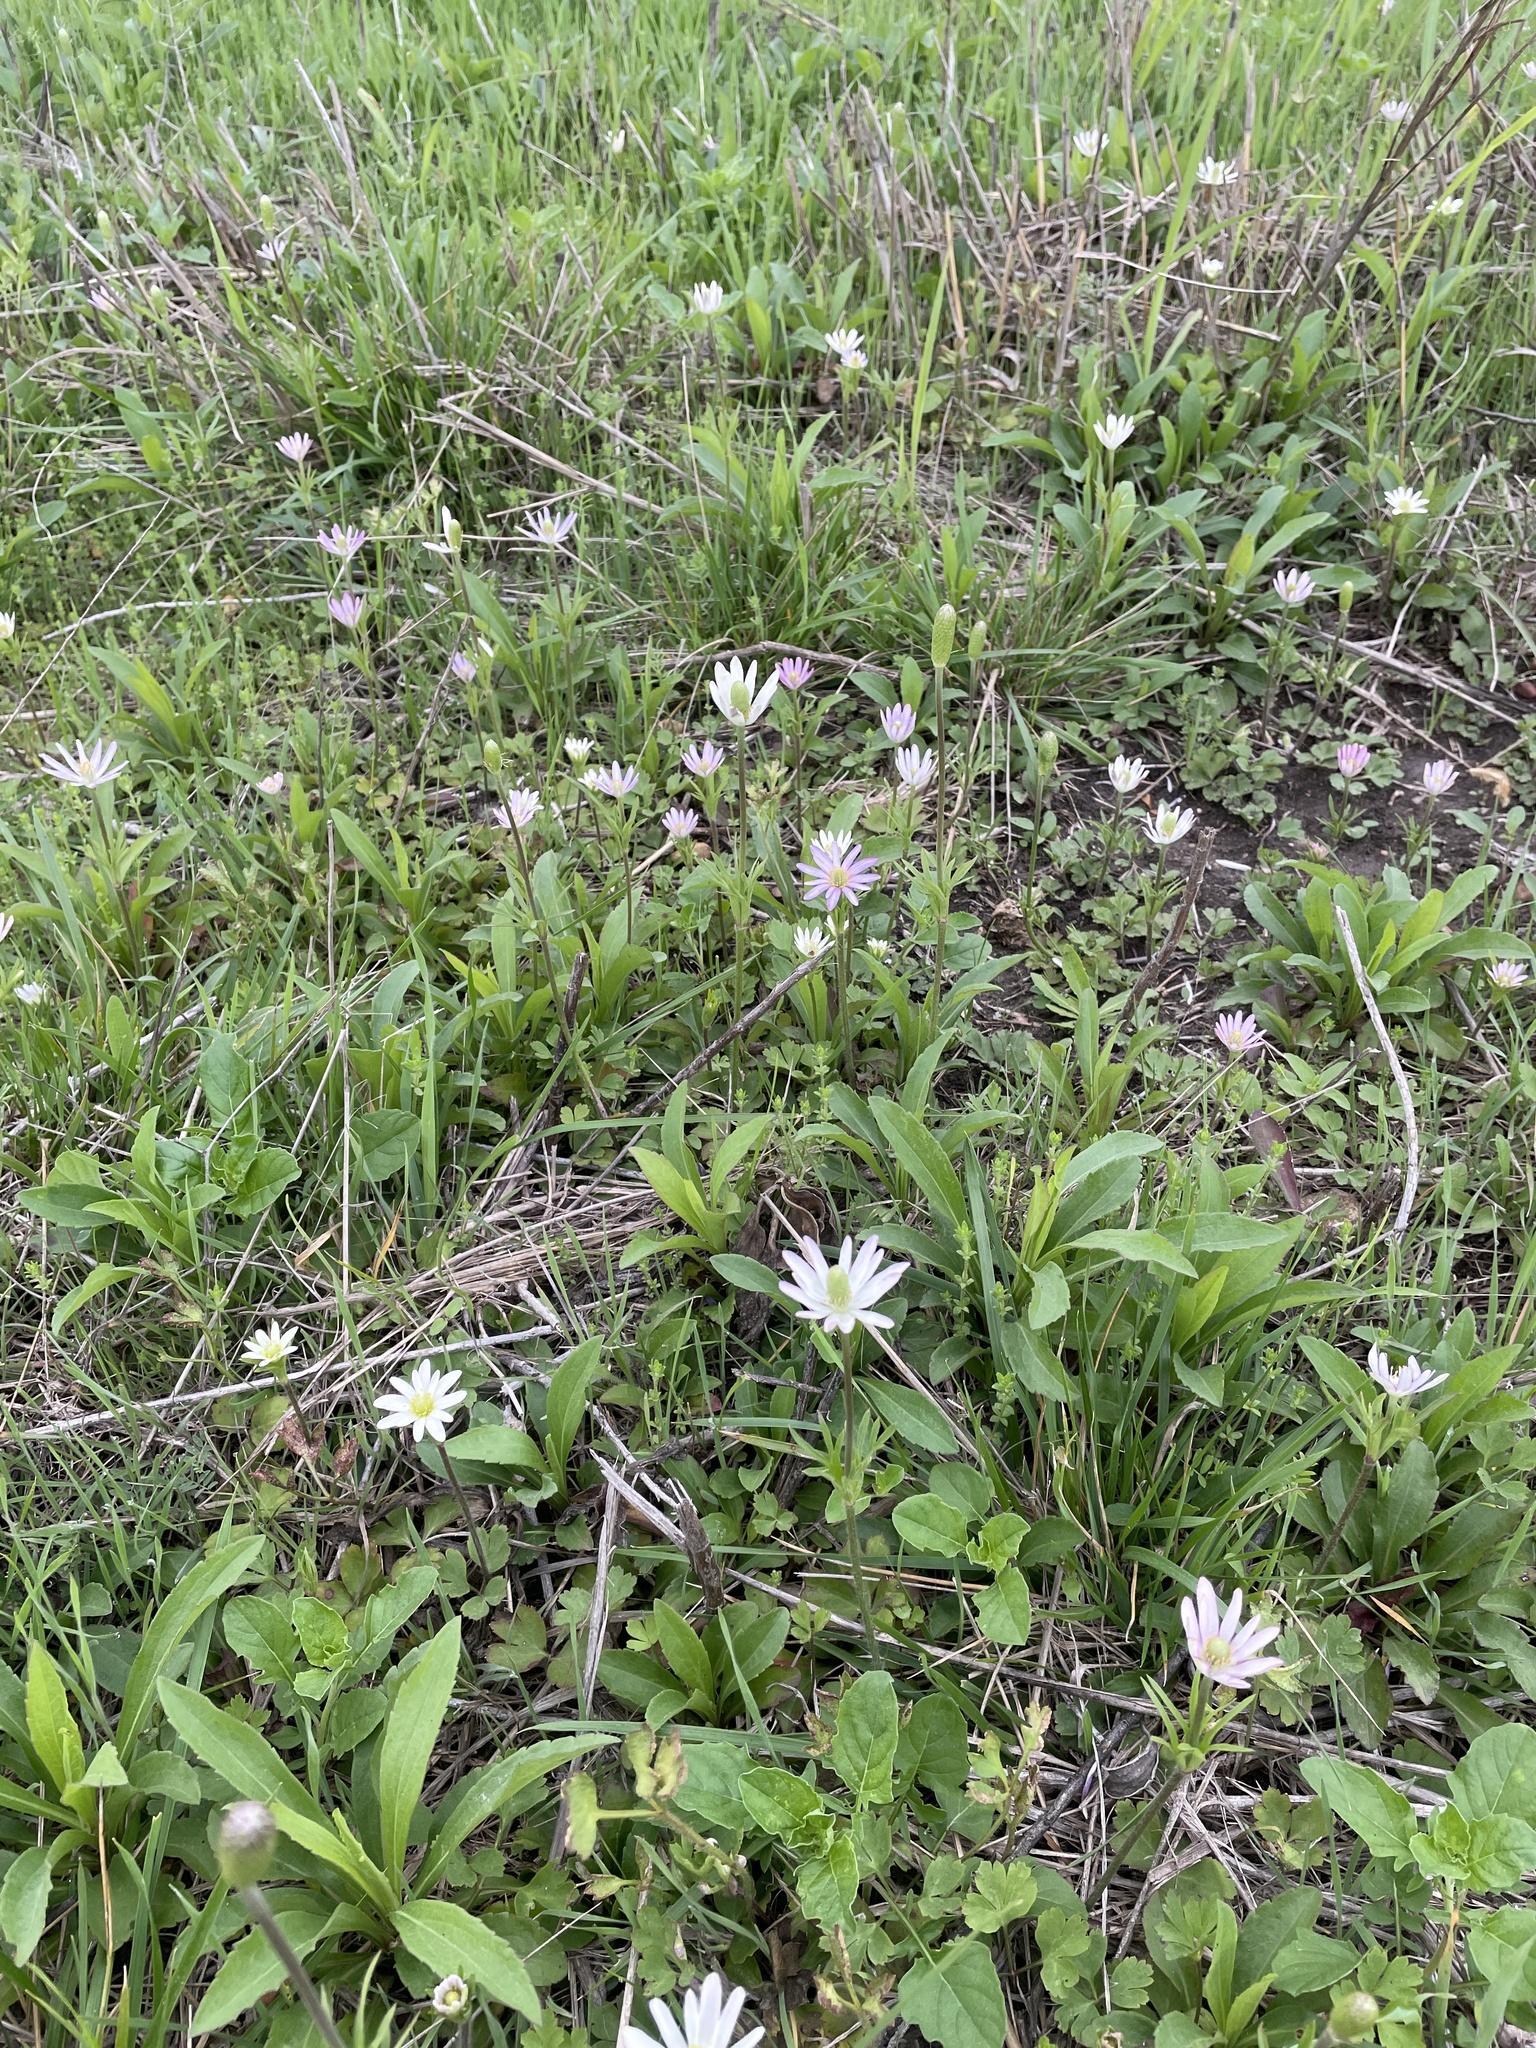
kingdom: Plantae
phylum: Tracheophyta
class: Magnoliopsida
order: Ranunculales
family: Ranunculaceae
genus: Anemone
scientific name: Anemone berlandieri
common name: Ten-petal anemone
